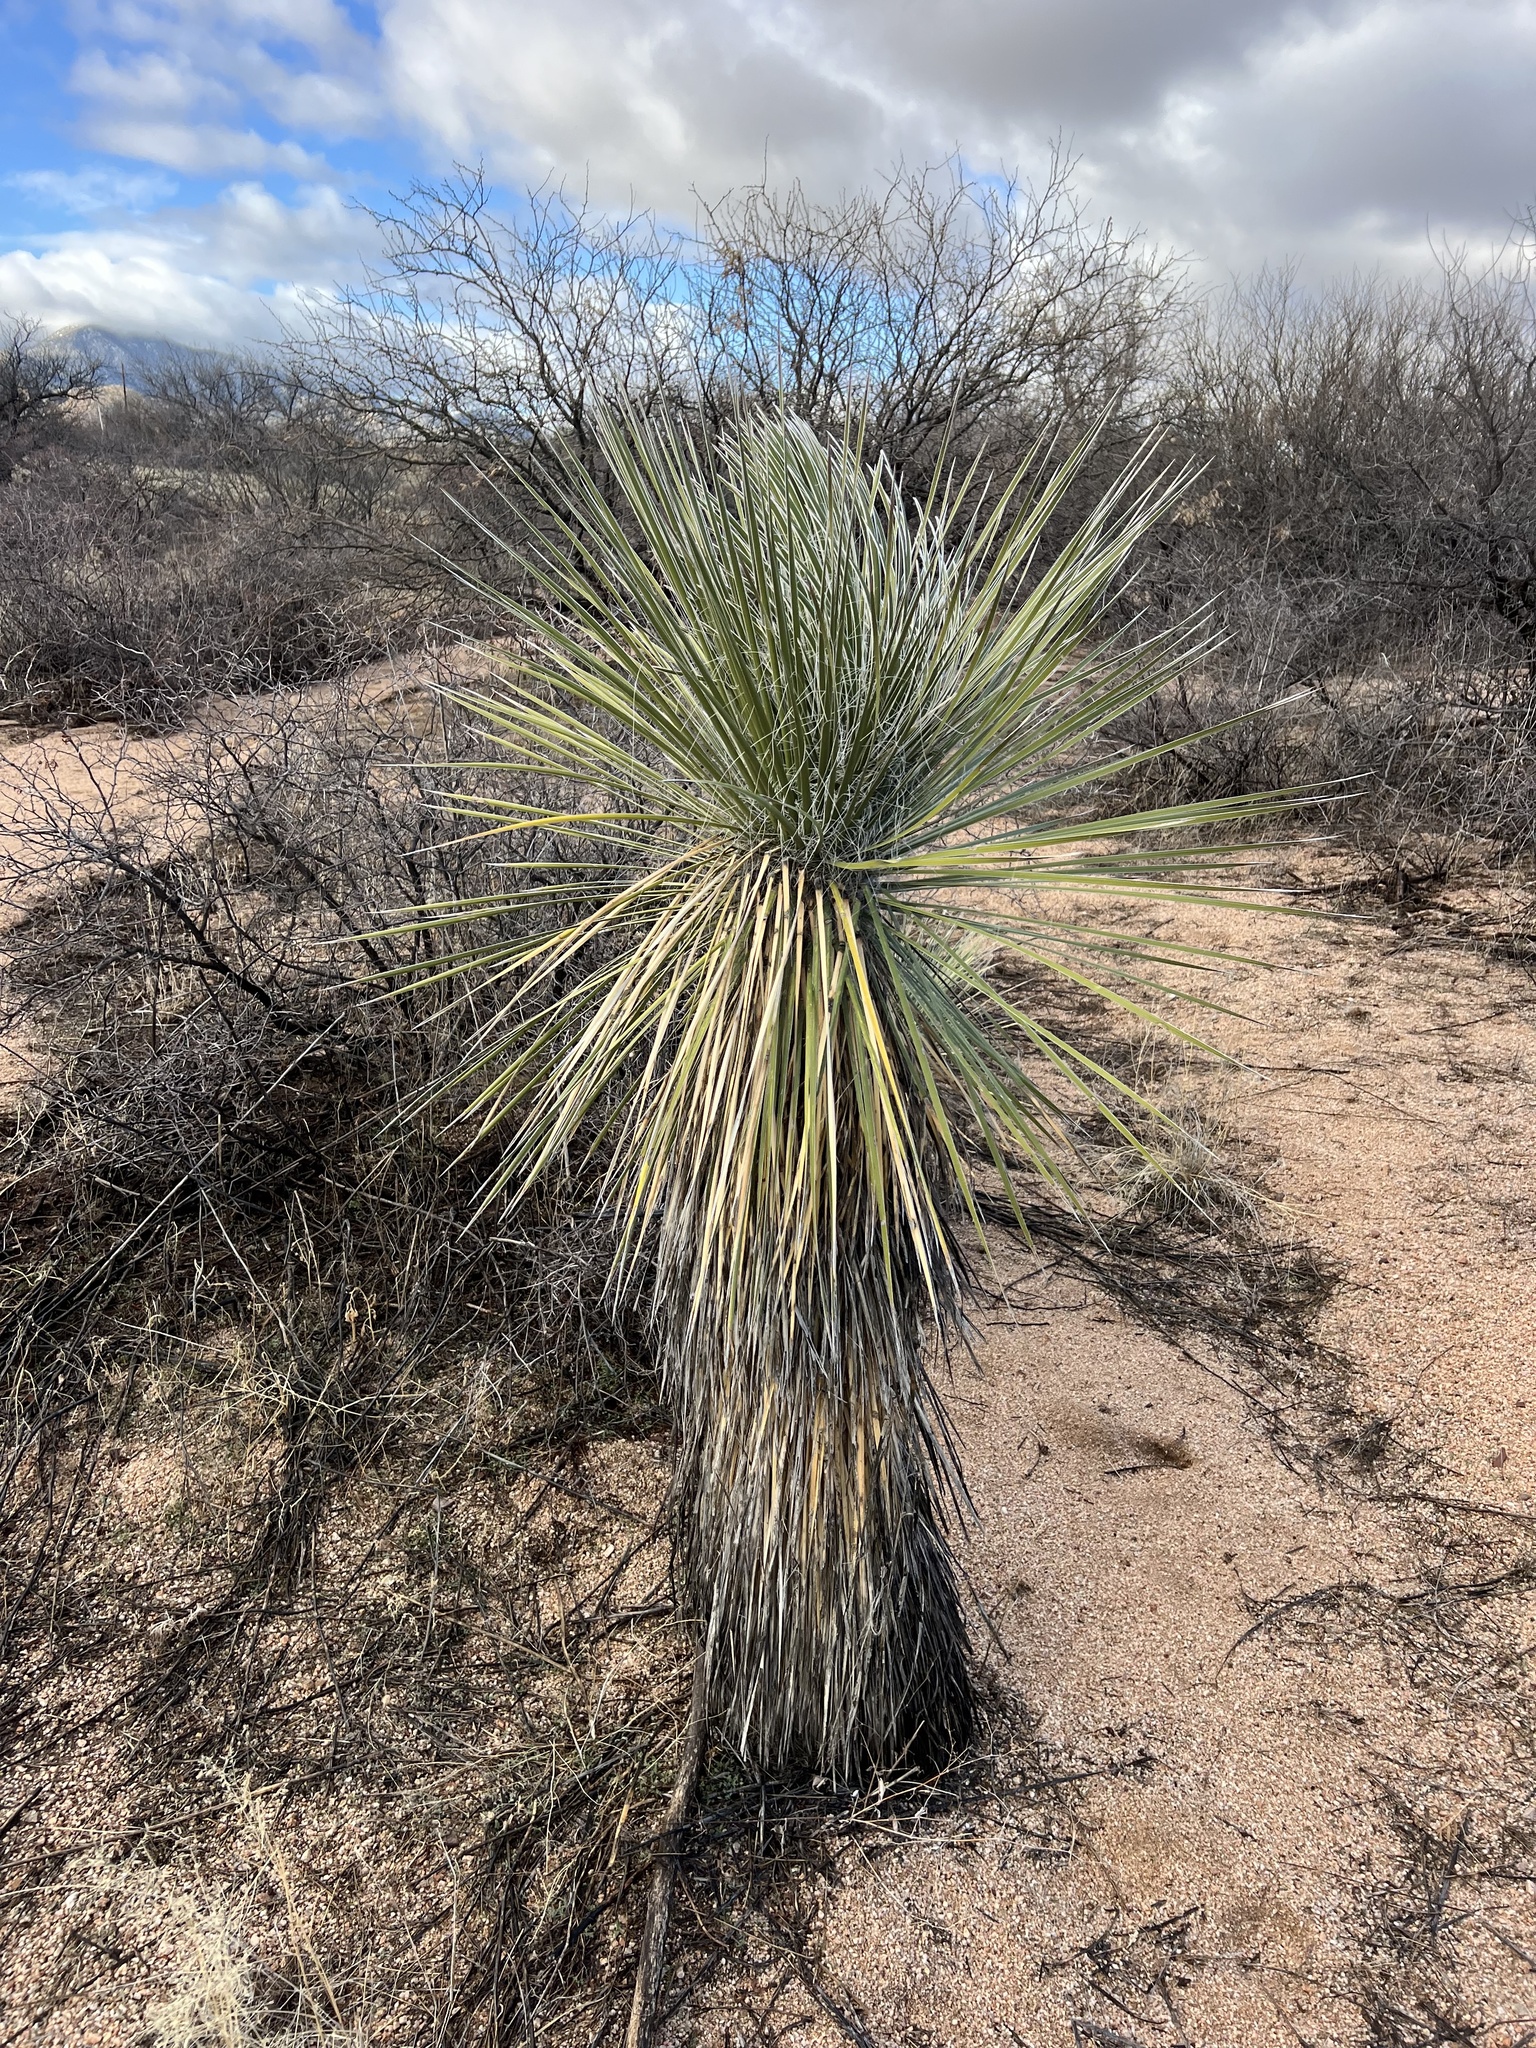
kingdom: Plantae
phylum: Tracheophyta
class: Liliopsida
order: Asparagales
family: Asparagaceae
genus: Yucca
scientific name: Yucca elata
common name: Palmella
